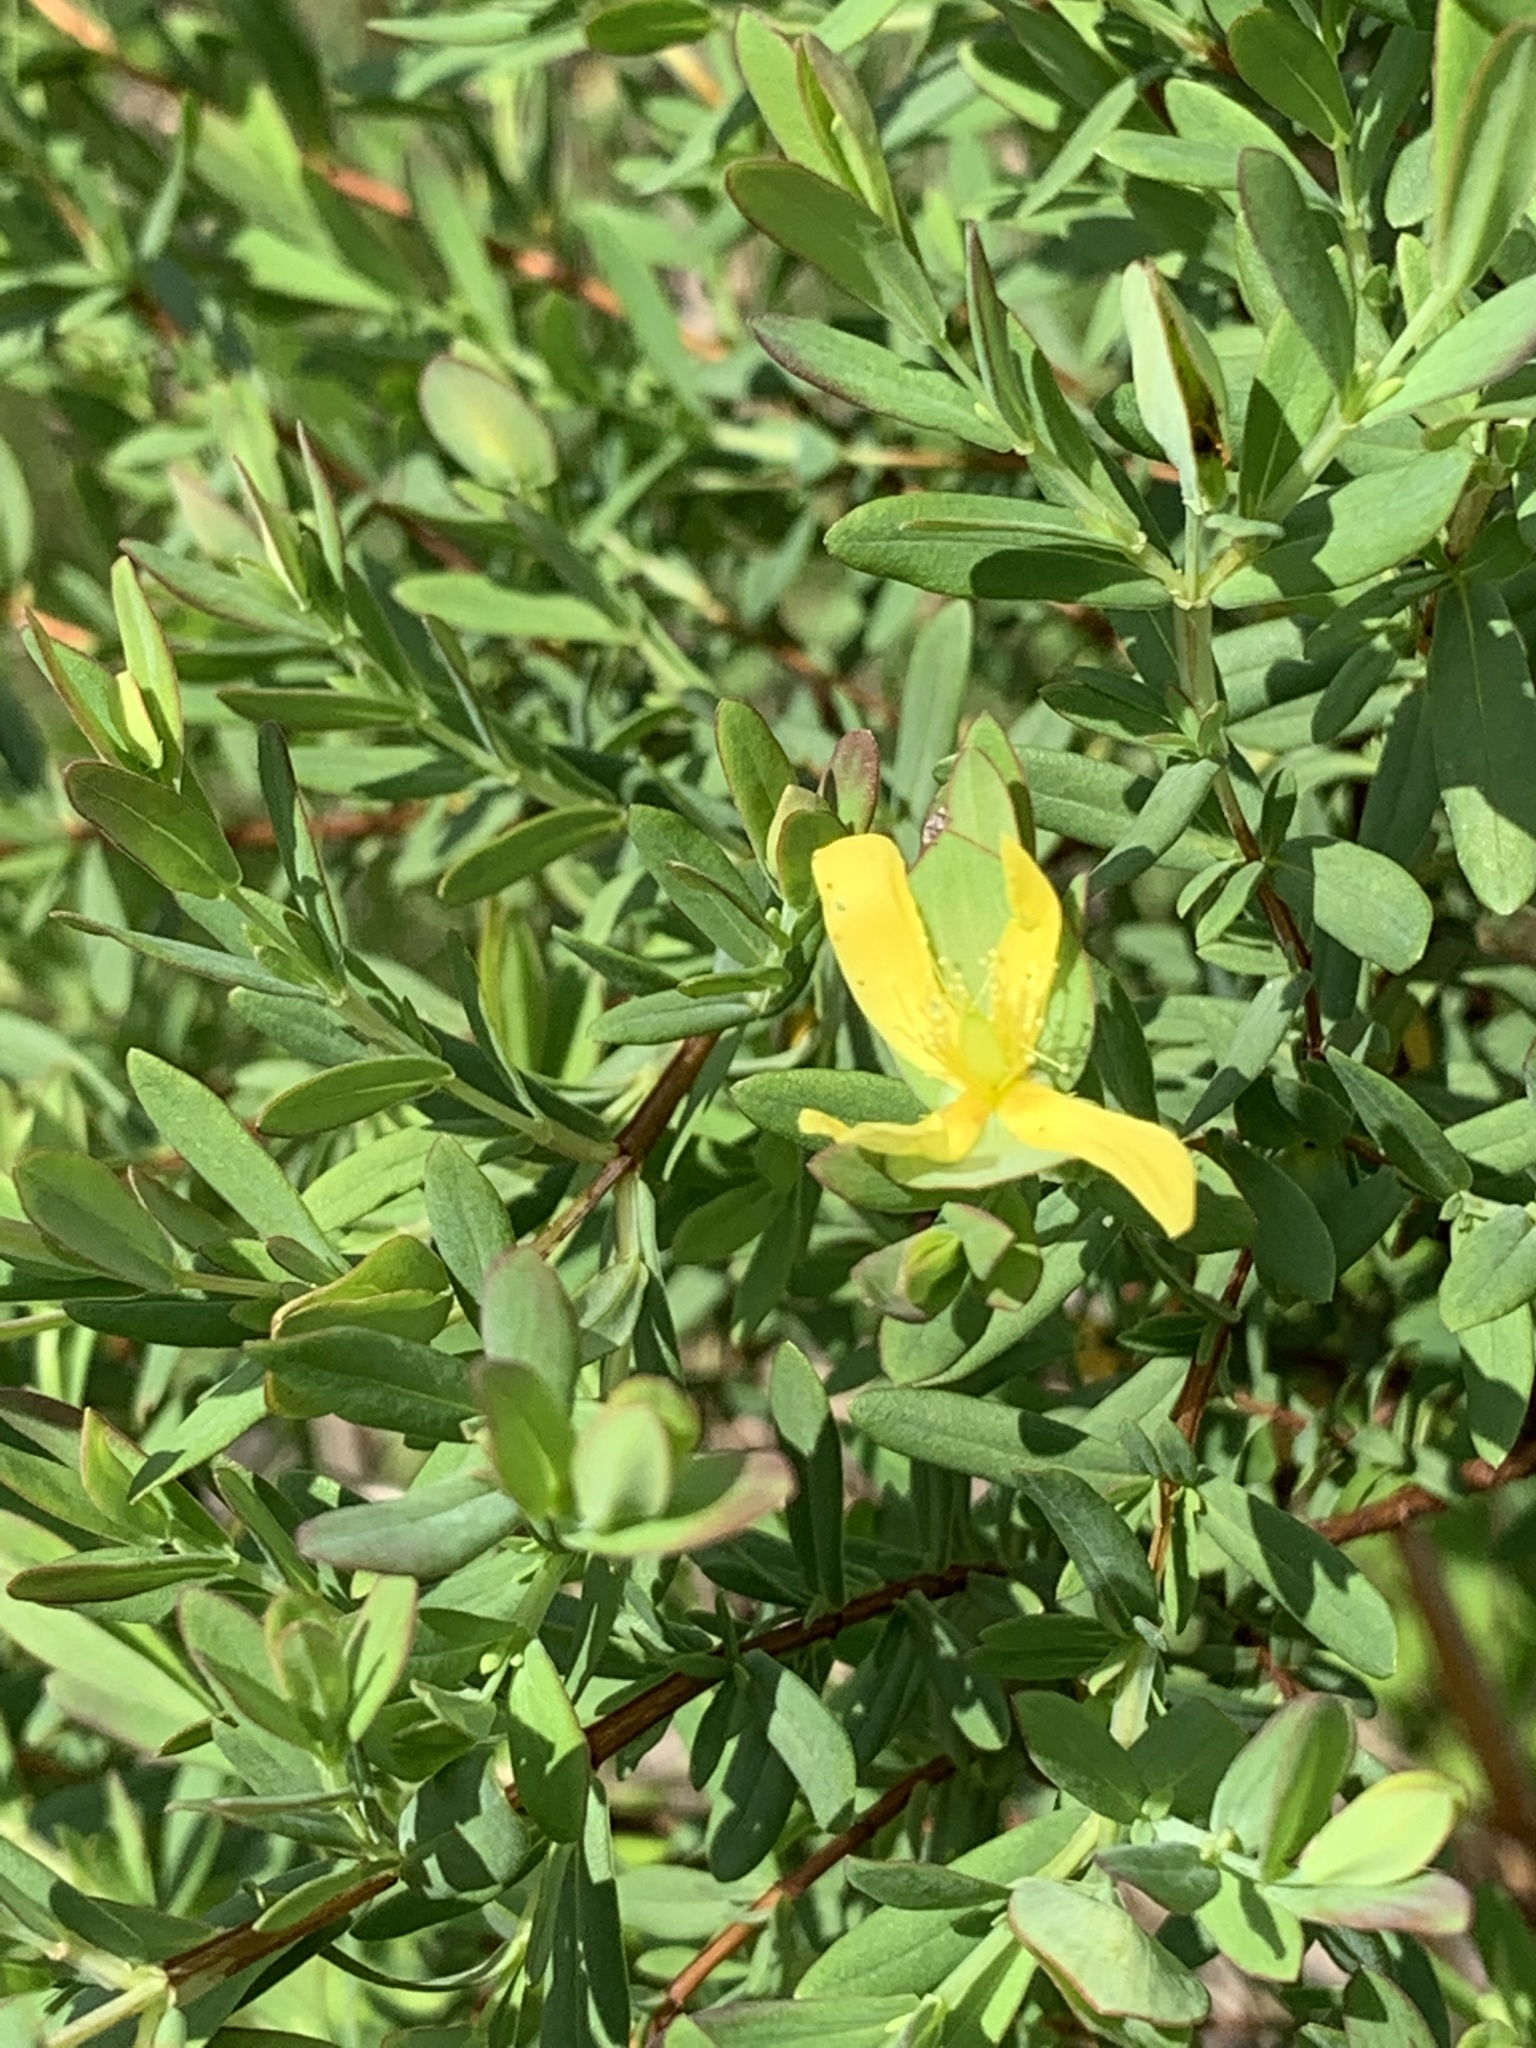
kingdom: Plantae
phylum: Tracheophyta
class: Magnoliopsida
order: Malpighiales
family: Hypericaceae
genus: Hypericum
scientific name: Hypericum hypericoides
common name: St. andrew's cross
